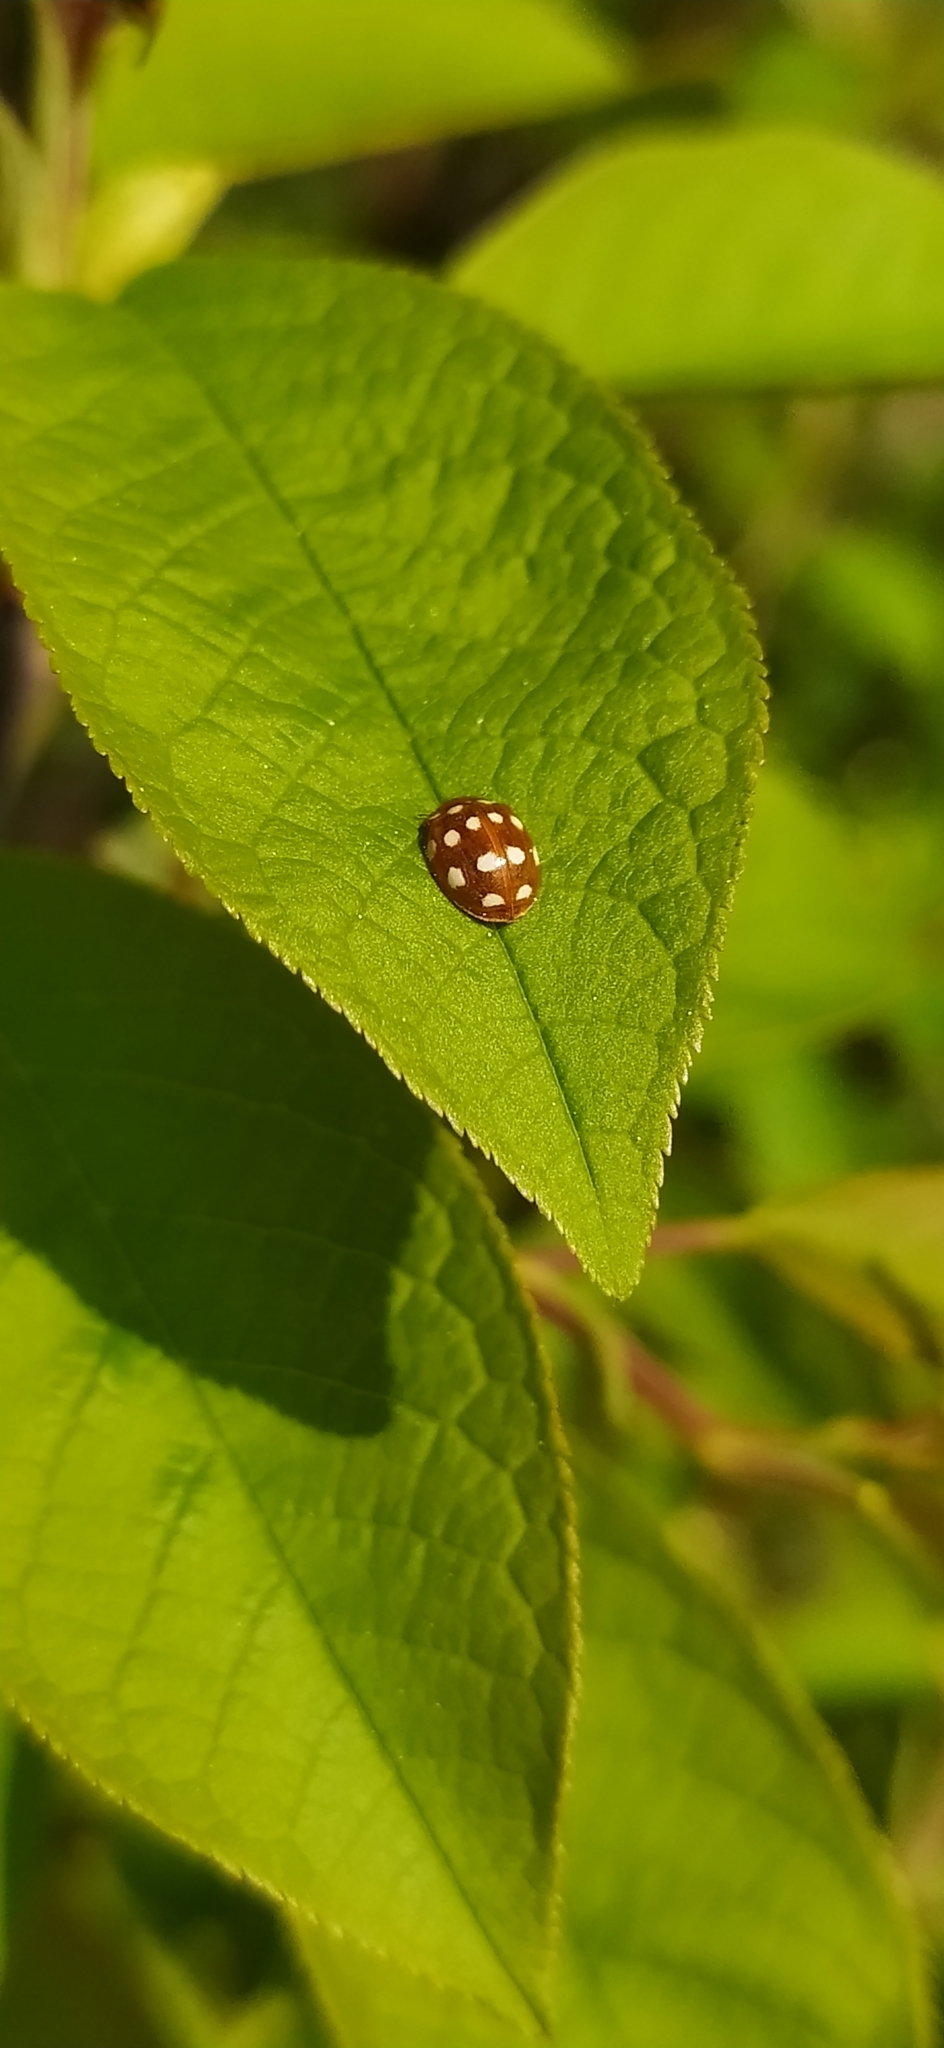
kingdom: Animalia
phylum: Arthropoda
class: Insecta
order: Coleoptera
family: Coccinellidae
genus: Calvia
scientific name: Calvia quatuordecimguttata
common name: Cream-spot ladybird
